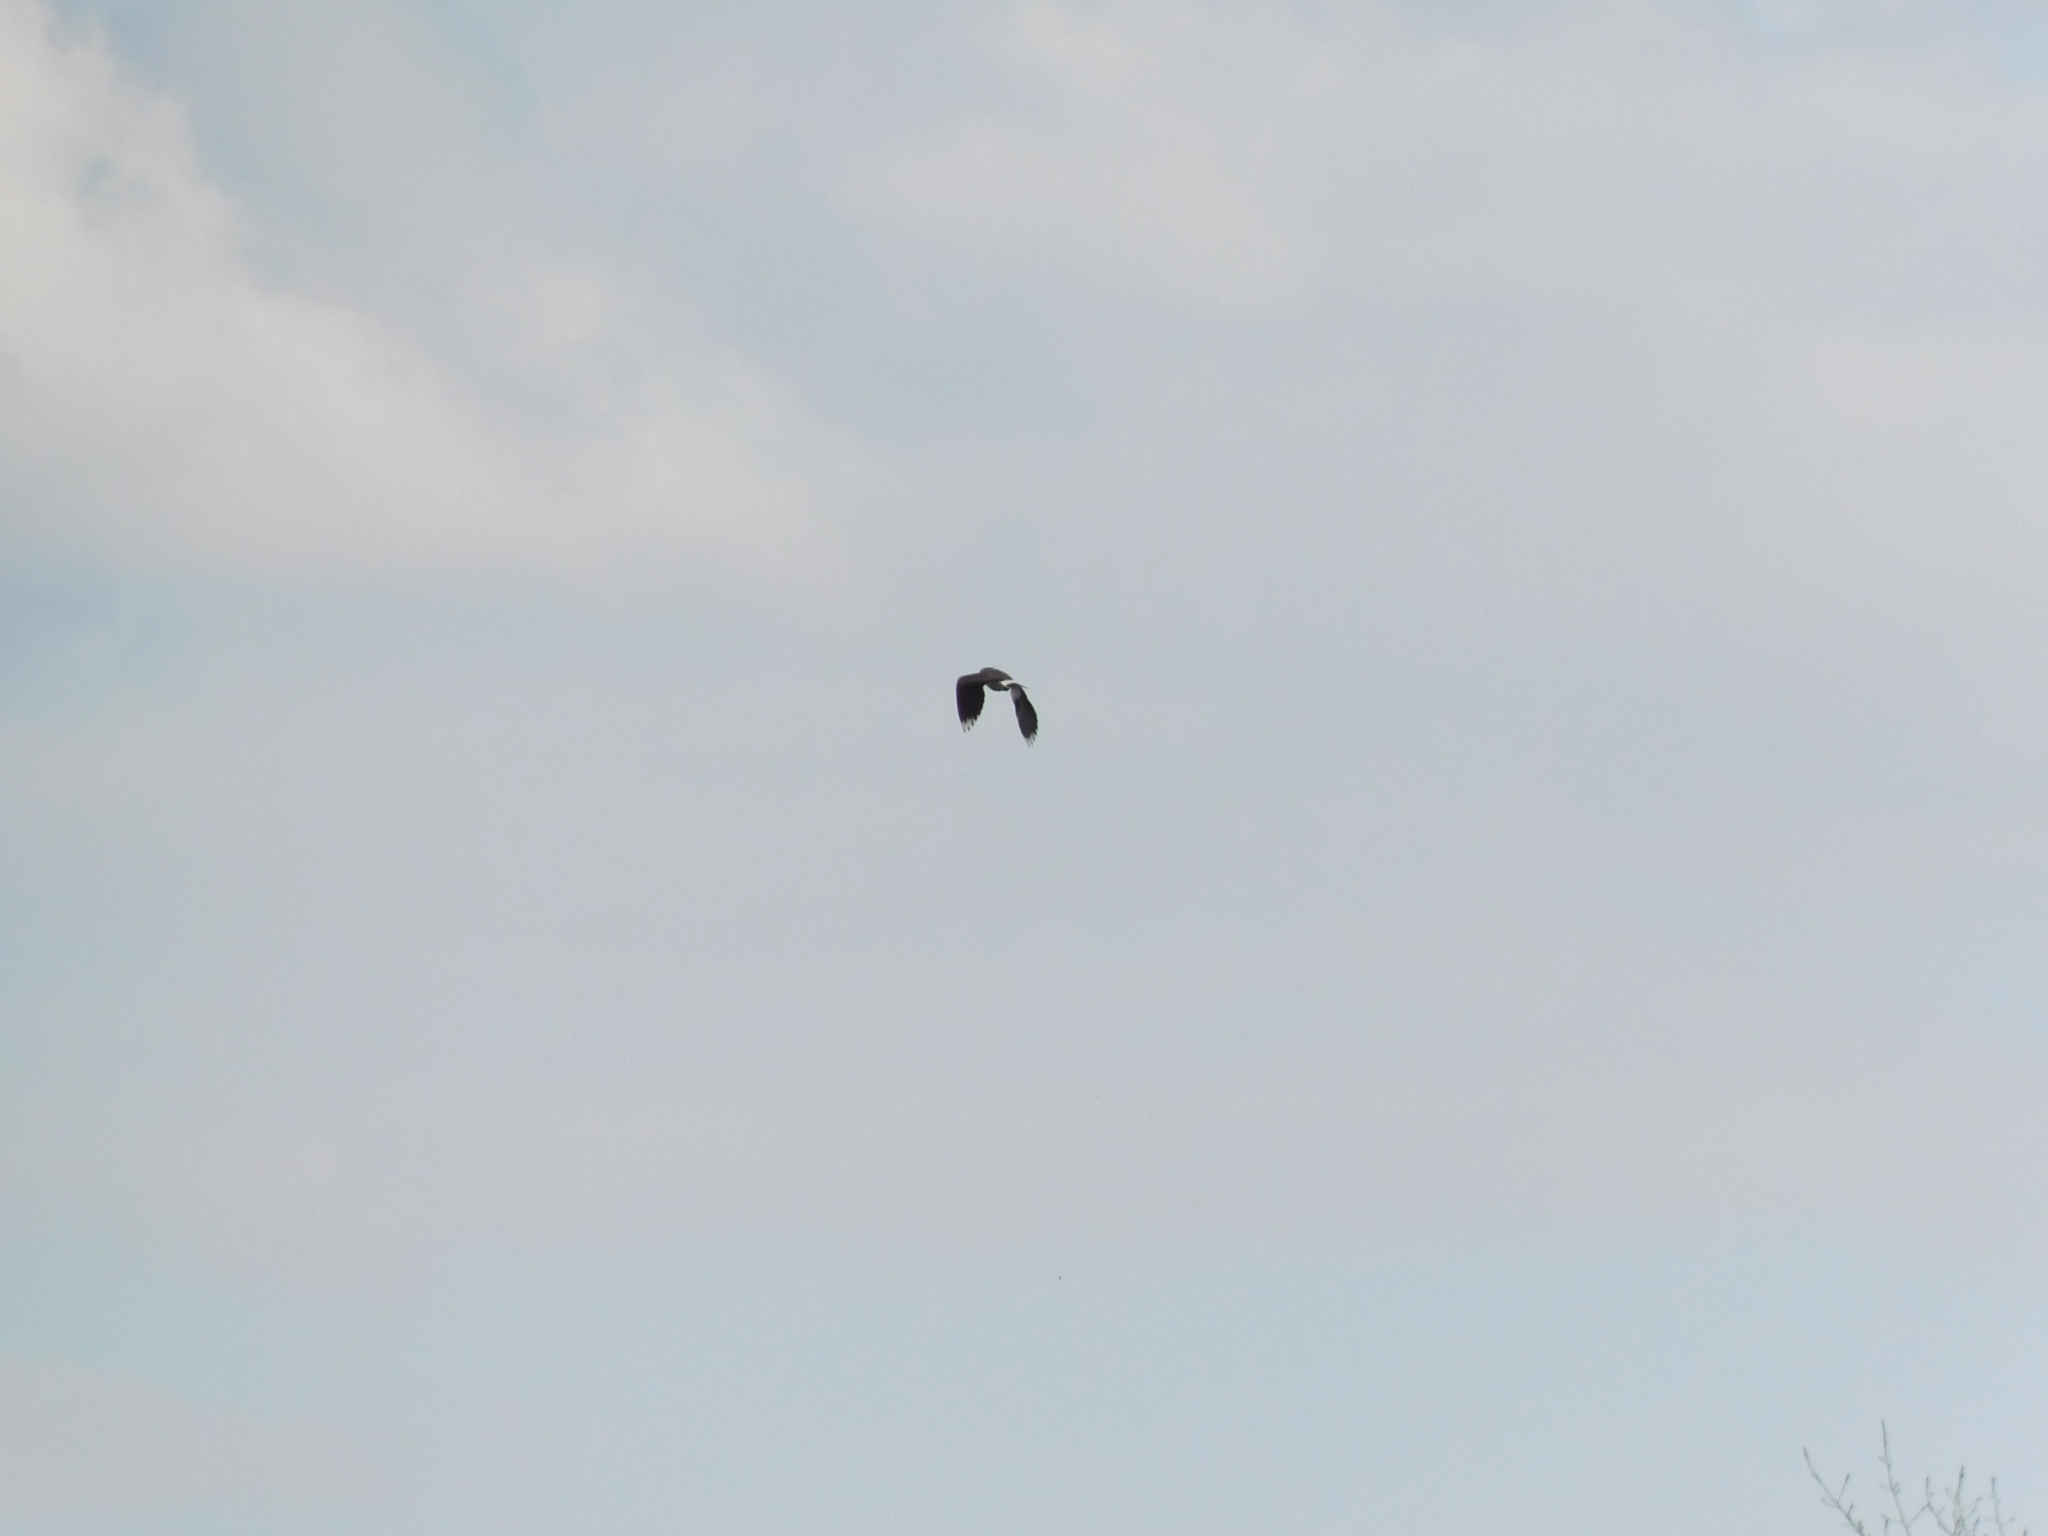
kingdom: Animalia
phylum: Chordata
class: Aves
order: Charadriiformes
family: Charadriidae
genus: Vanellus
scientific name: Vanellus vanellus
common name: Northern lapwing
